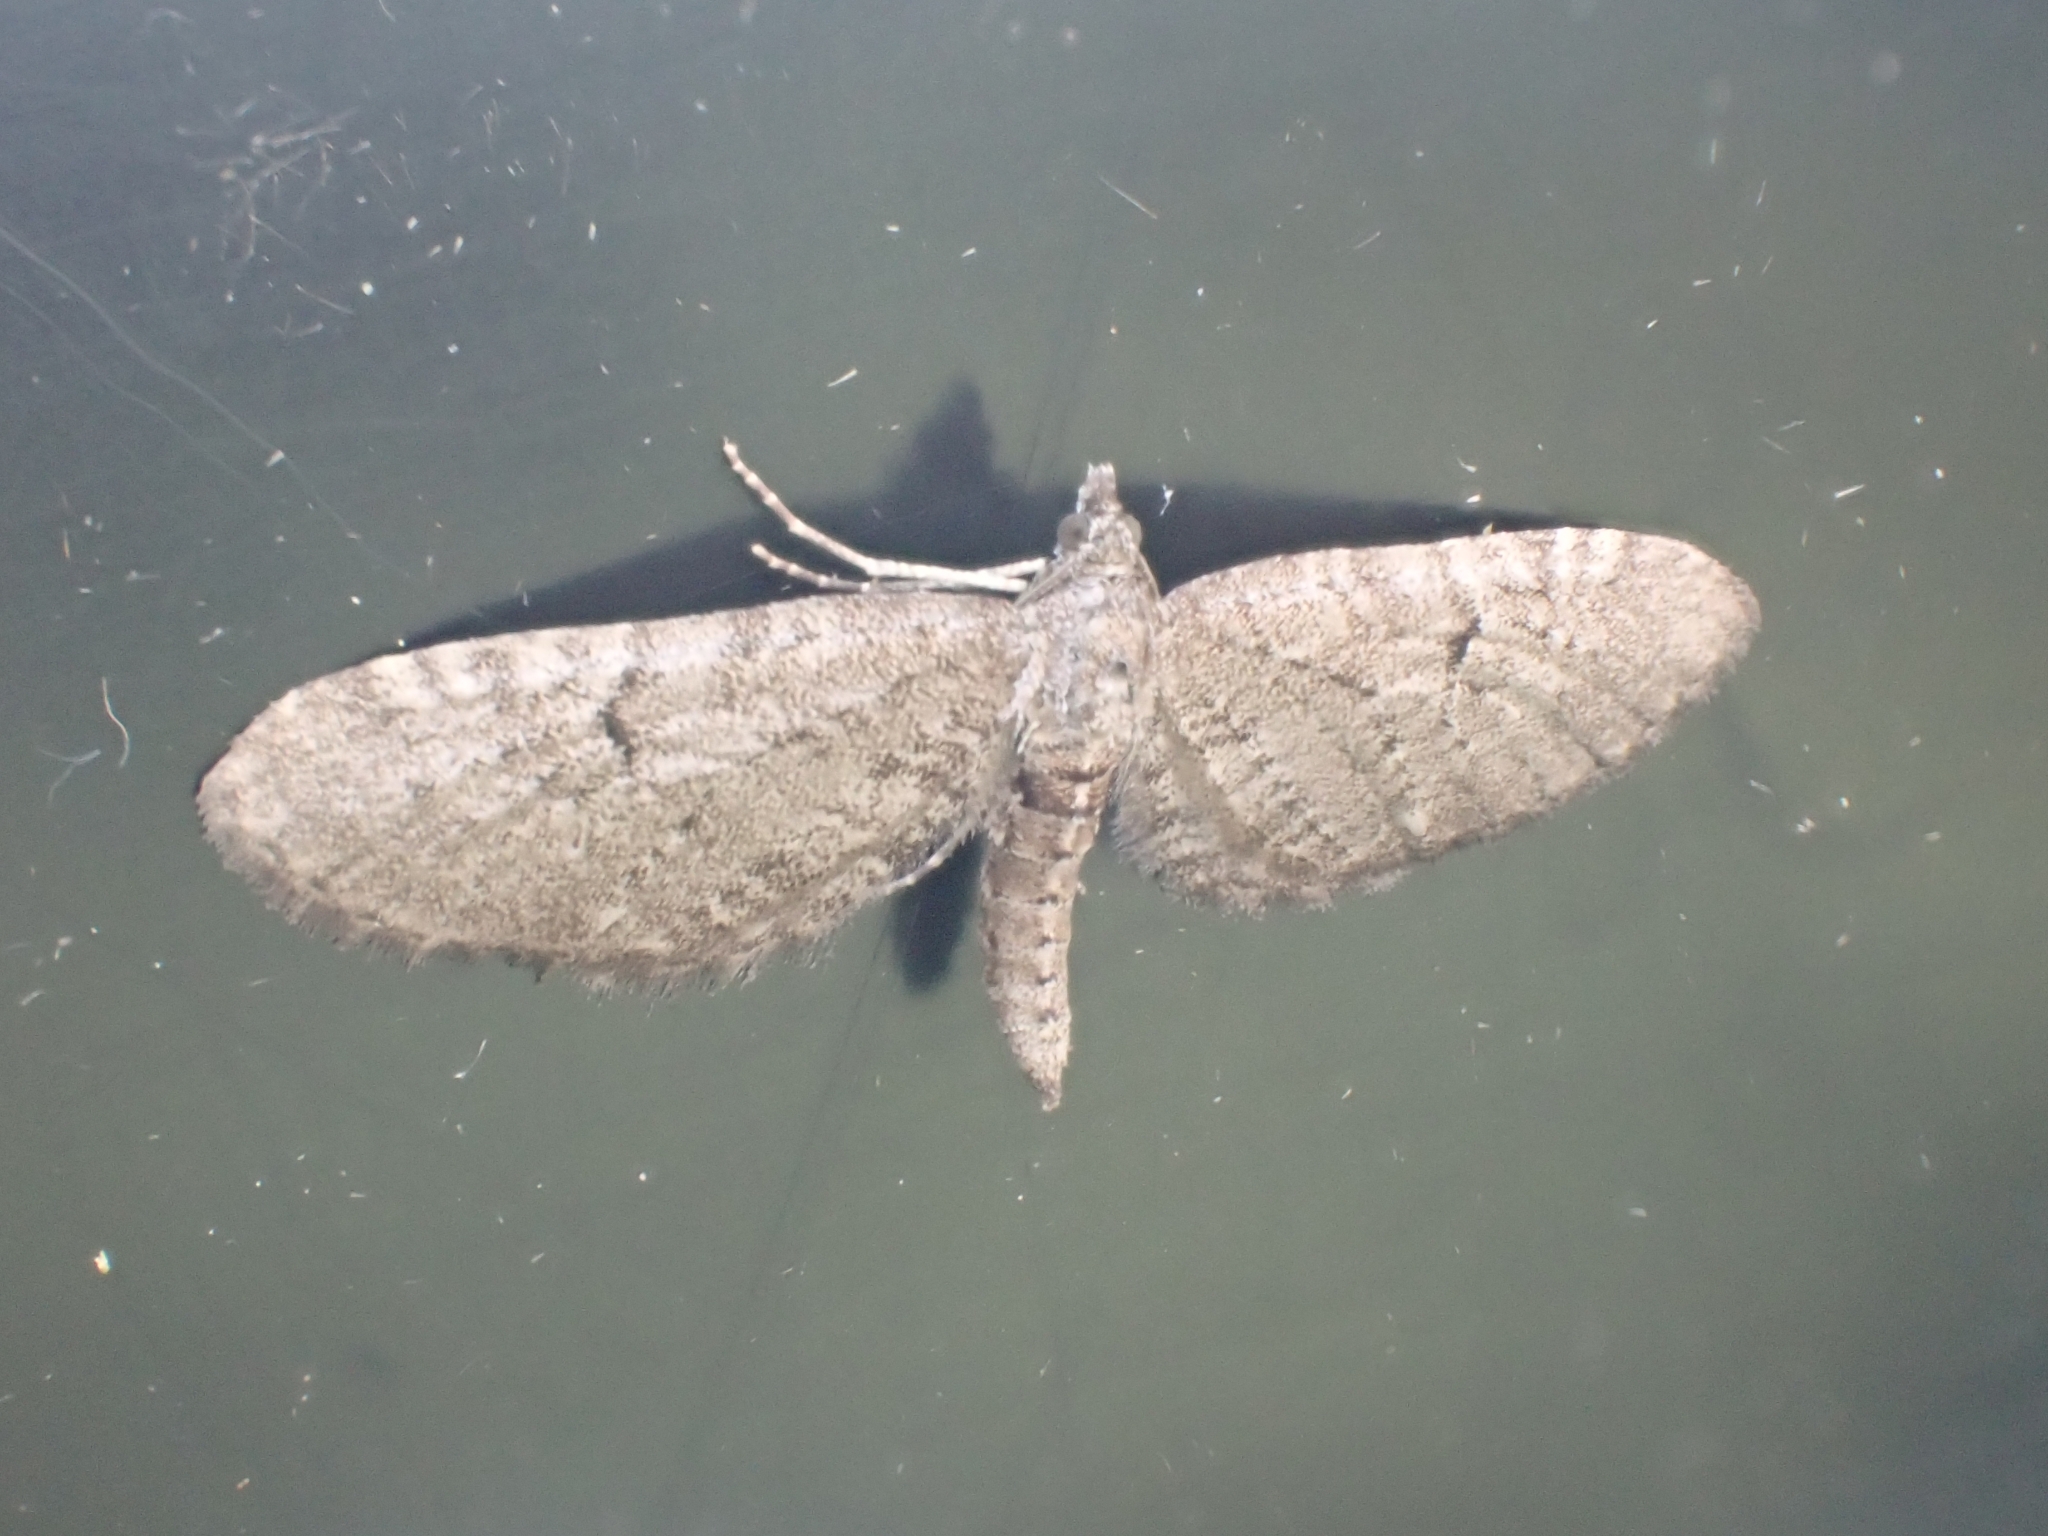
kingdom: Animalia
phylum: Arthropoda
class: Insecta
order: Lepidoptera
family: Geometridae
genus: Eupithecia
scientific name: Eupithecia intricata
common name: Freyers pug
